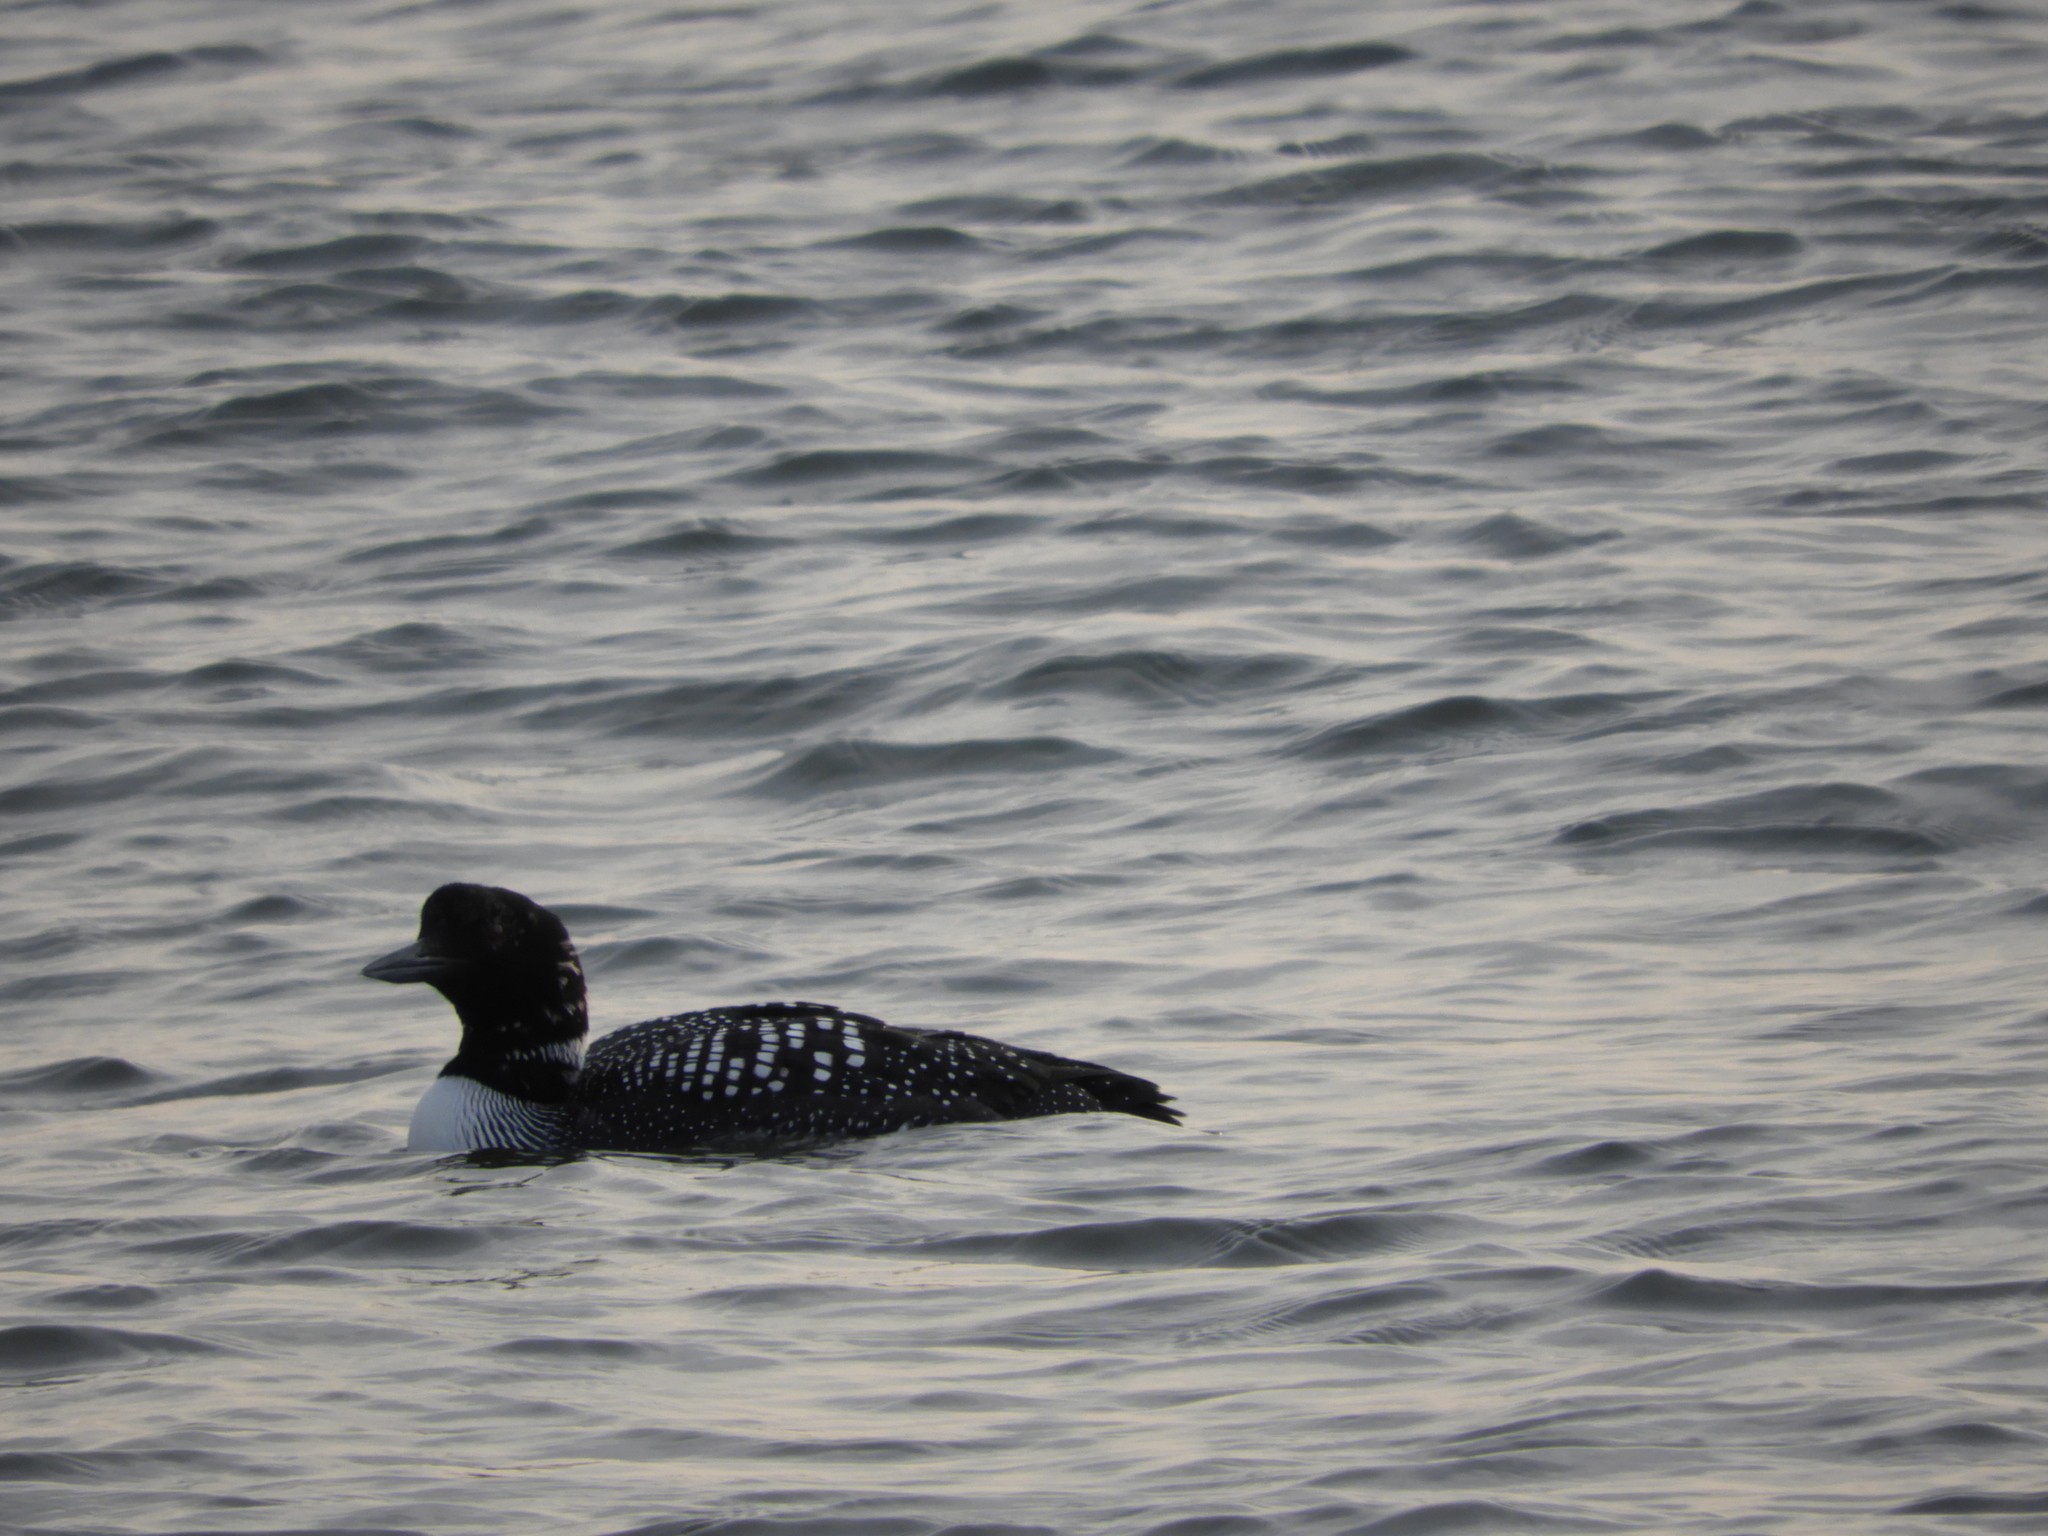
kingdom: Animalia
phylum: Chordata
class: Aves
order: Gaviiformes
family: Gaviidae
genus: Gavia
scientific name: Gavia immer
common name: Common loon
